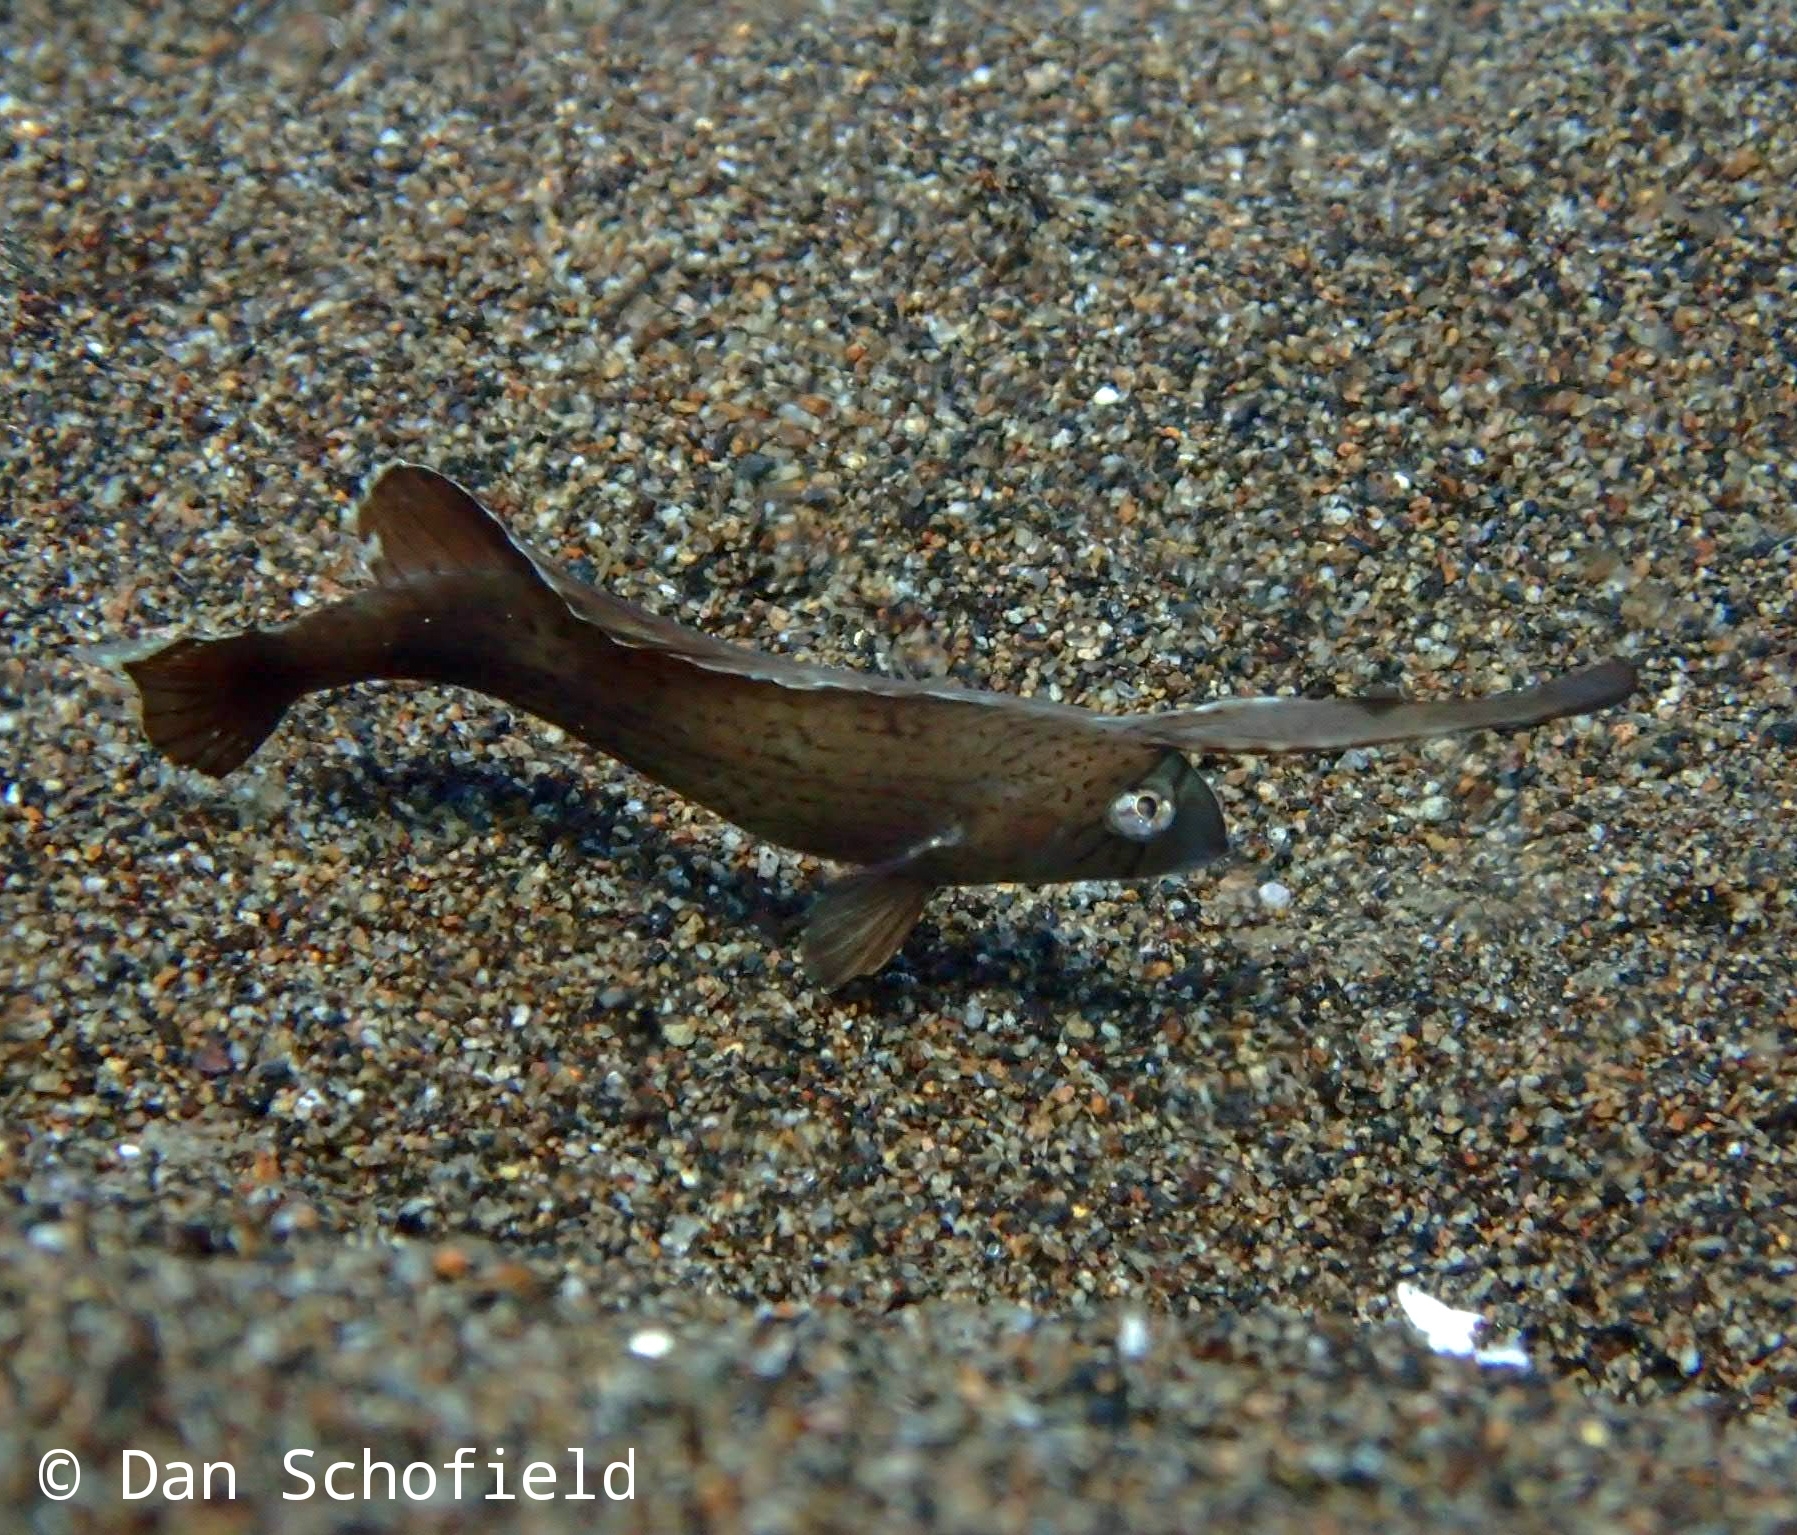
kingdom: Animalia
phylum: Chordata
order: Perciformes
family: Labridae
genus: Iniistius
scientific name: Iniistius pavo
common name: Peacock wrasse
